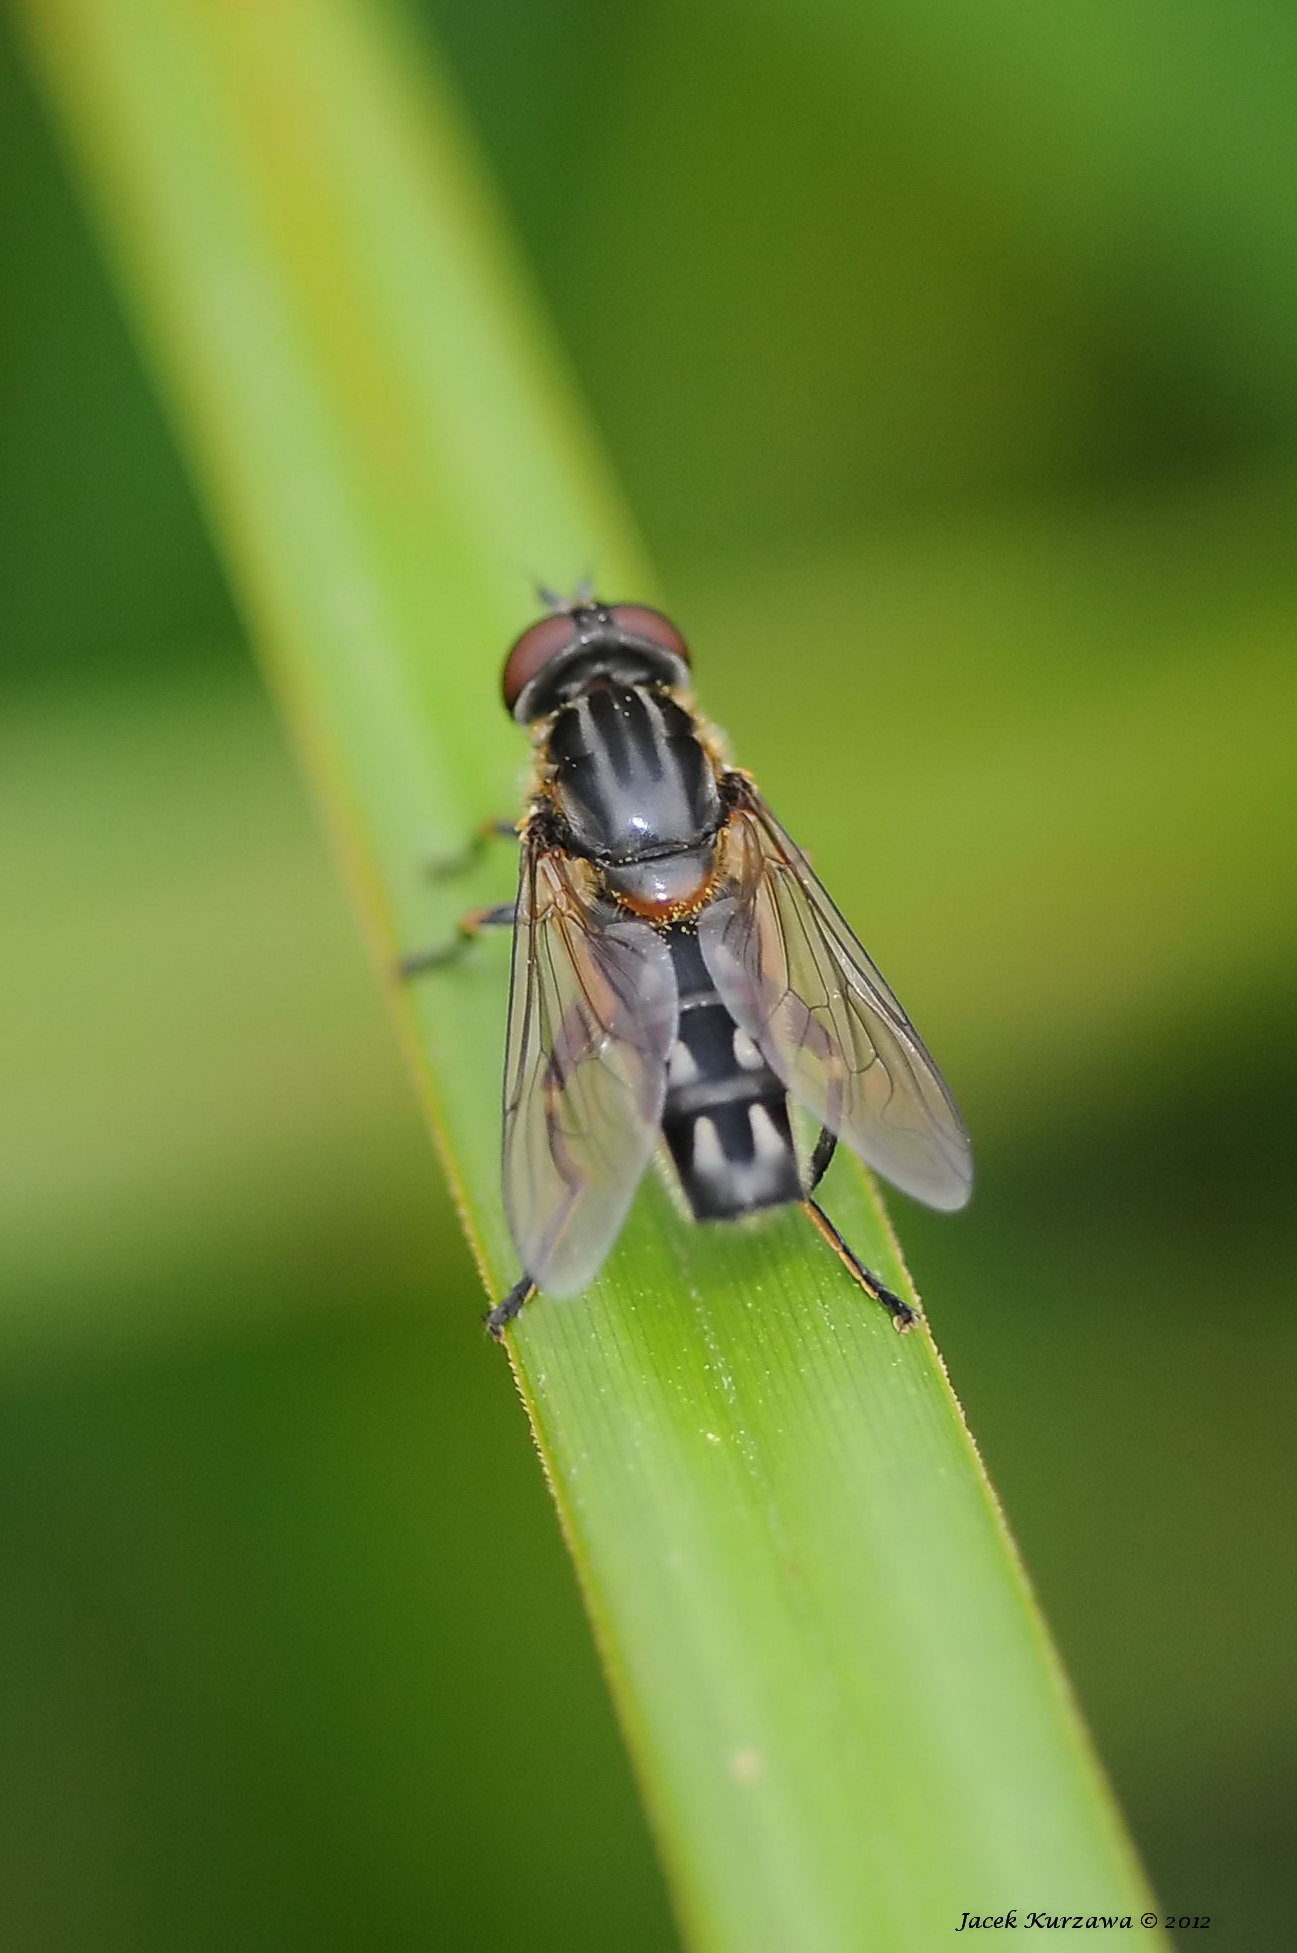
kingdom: Animalia
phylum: Arthropoda
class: Insecta
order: Diptera
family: Syrphidae
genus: Lejops
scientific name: Lejops vittatus
